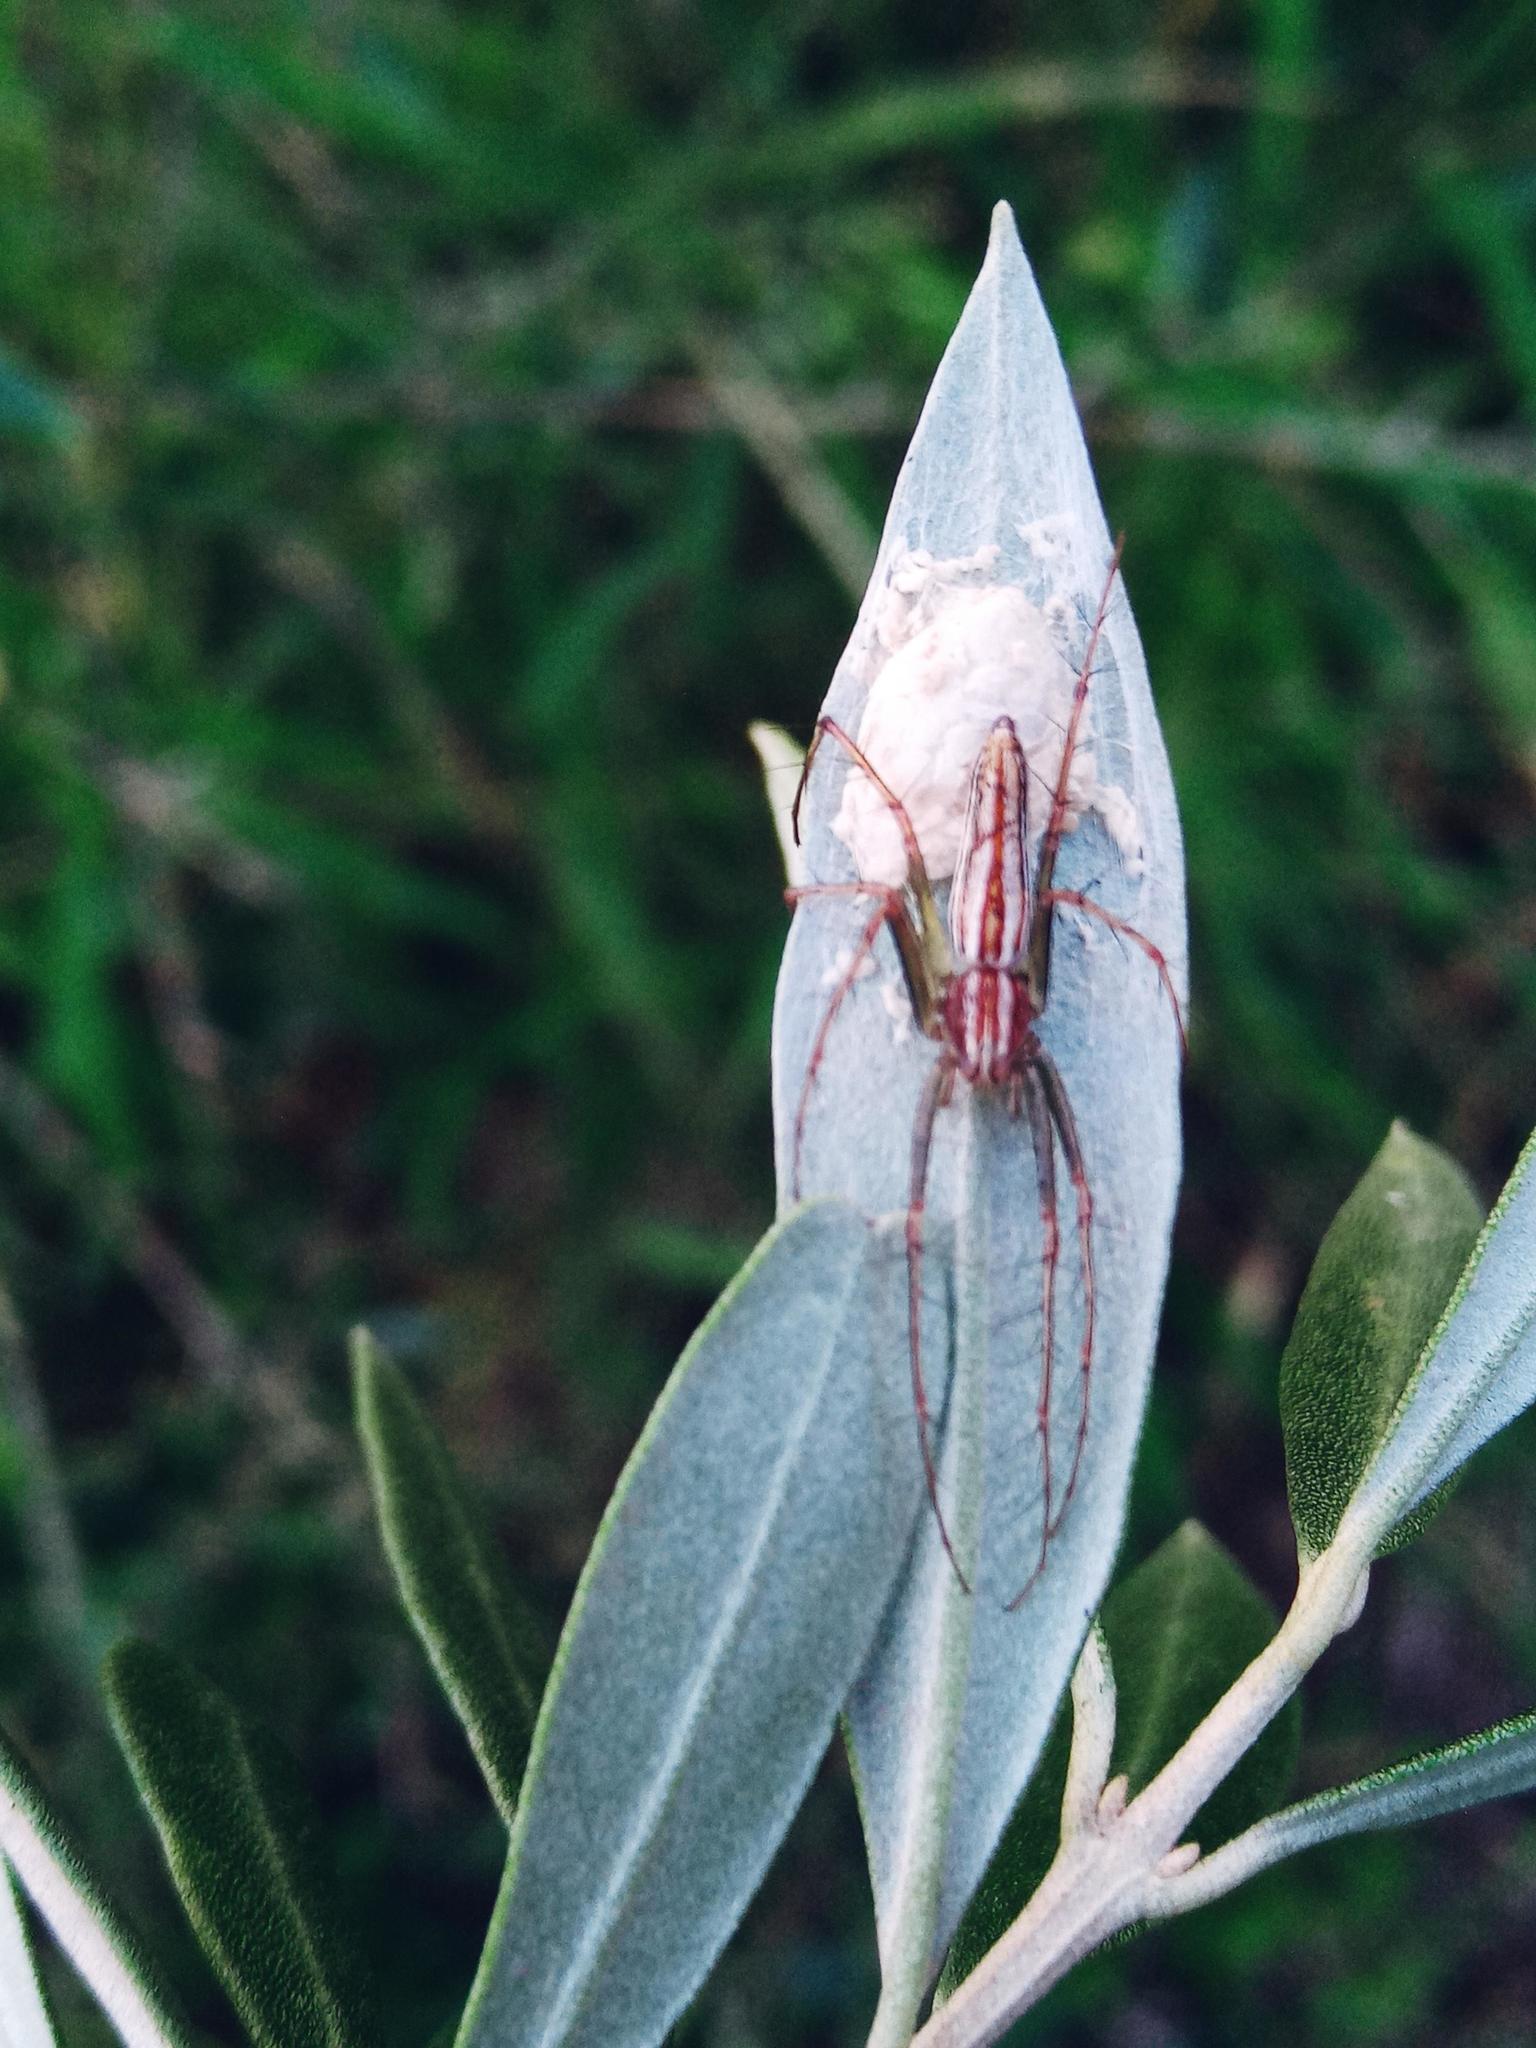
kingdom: Animalia
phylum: Arthropoda
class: Arachnida
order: Araneae
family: Oxyopidae
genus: Oxyopes
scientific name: Oxyopes macilentus
